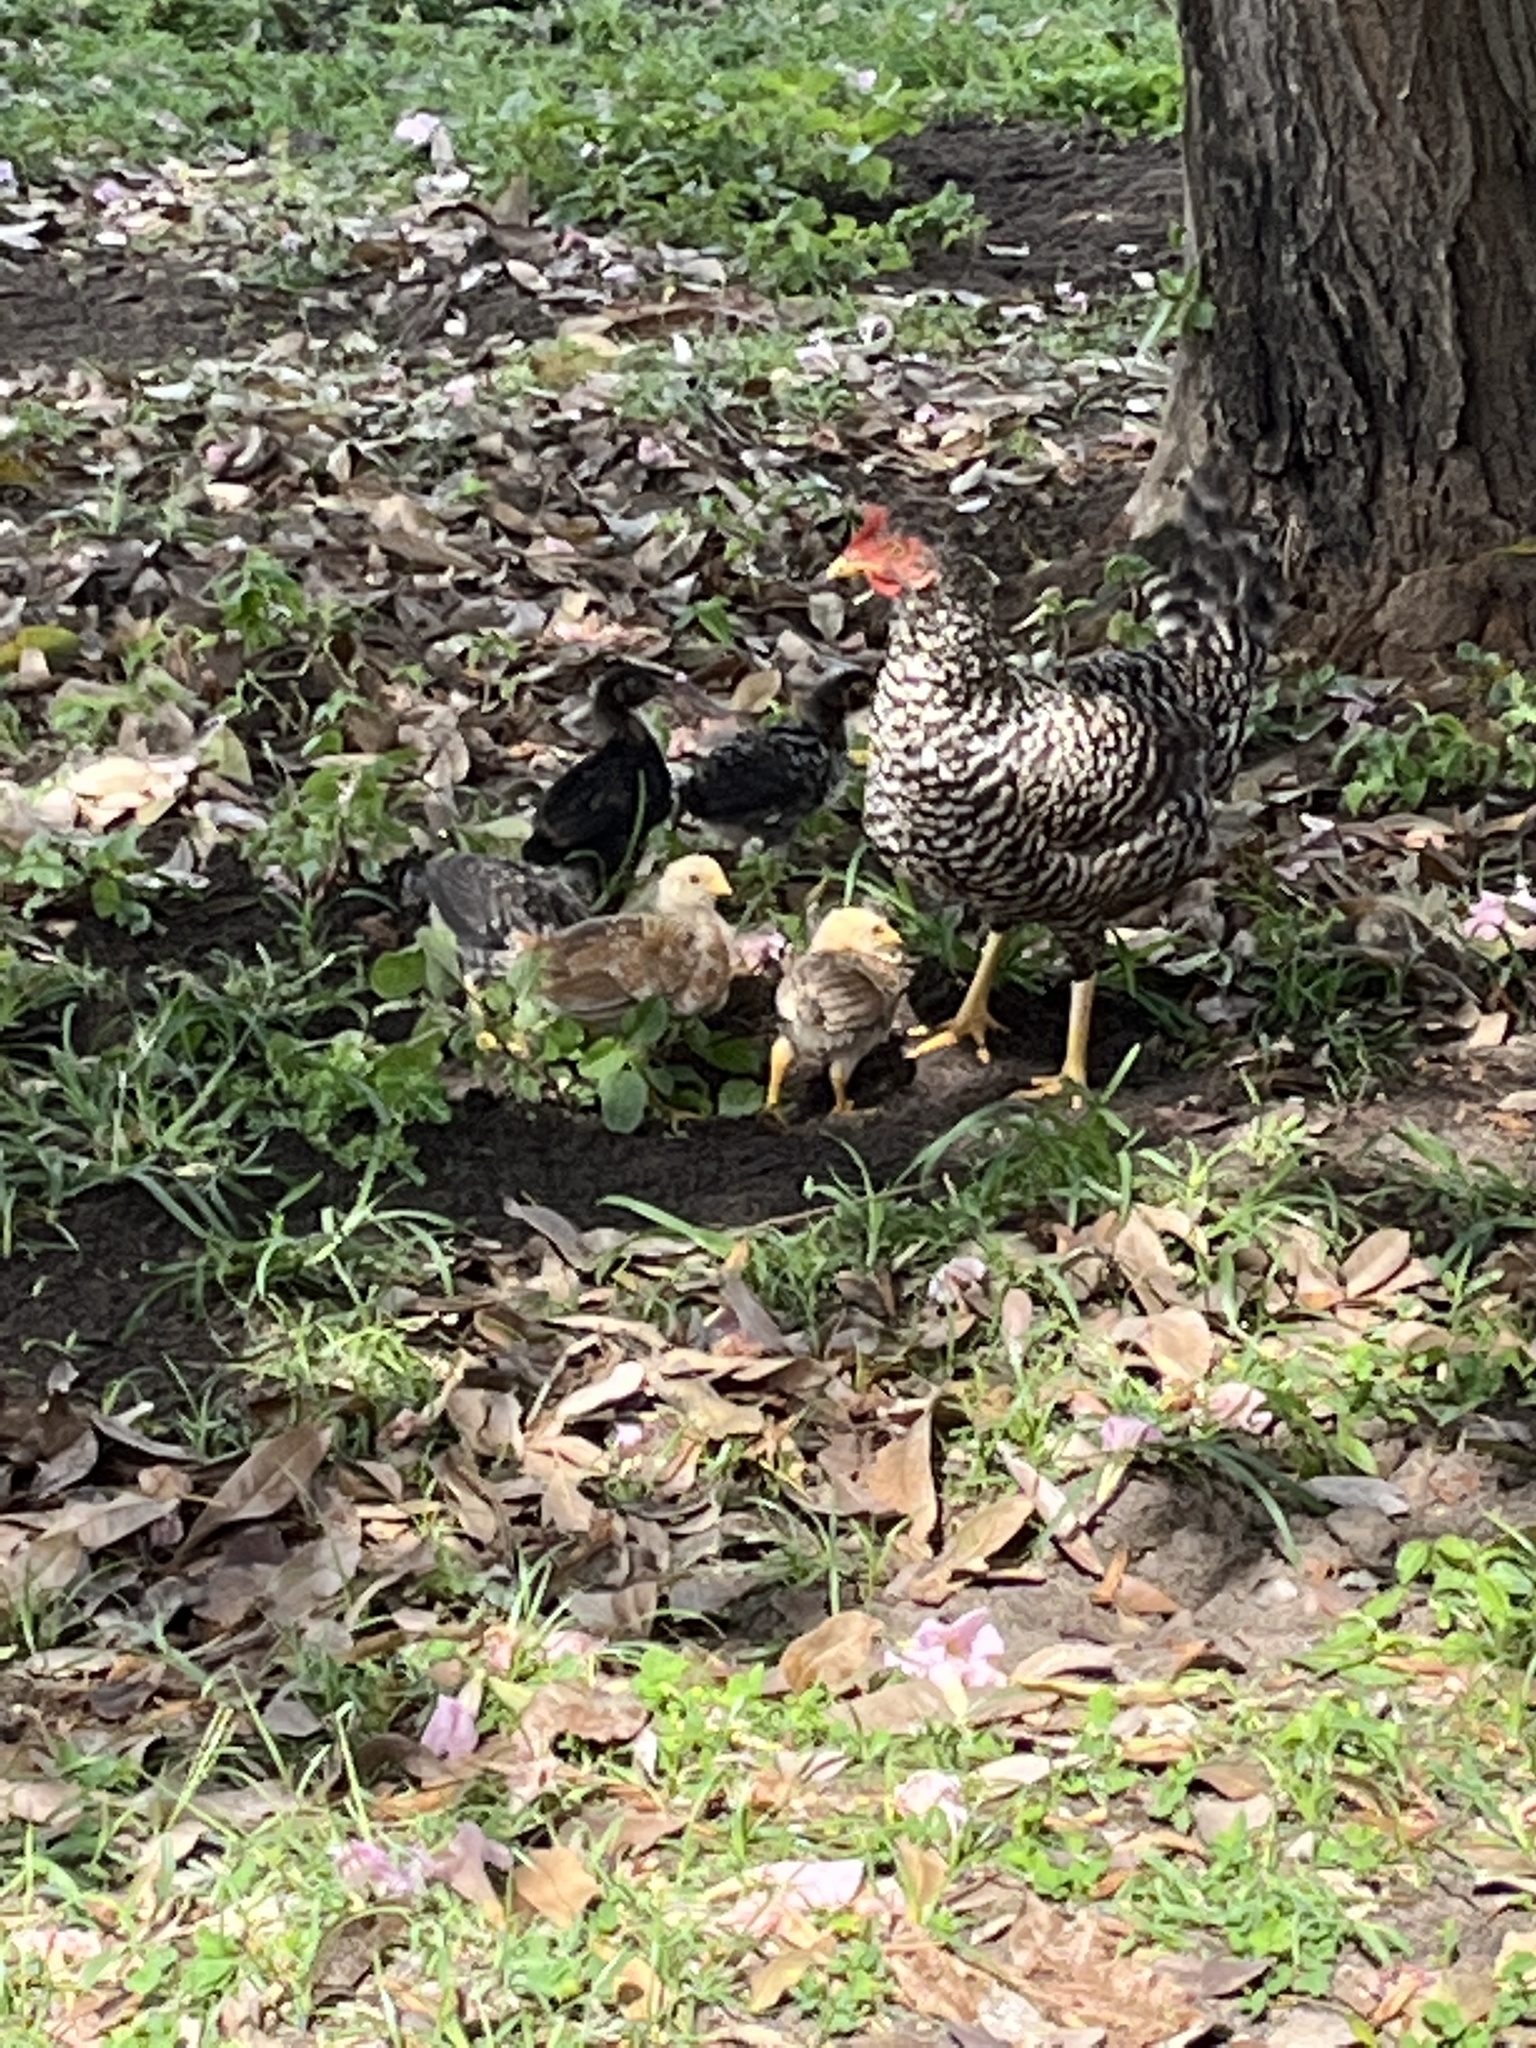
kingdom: Animalia
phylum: Chordata
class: Aves
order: Galliformes
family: Phasianidae
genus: Gallus
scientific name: Gallus gallus
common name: Red junglefowl
